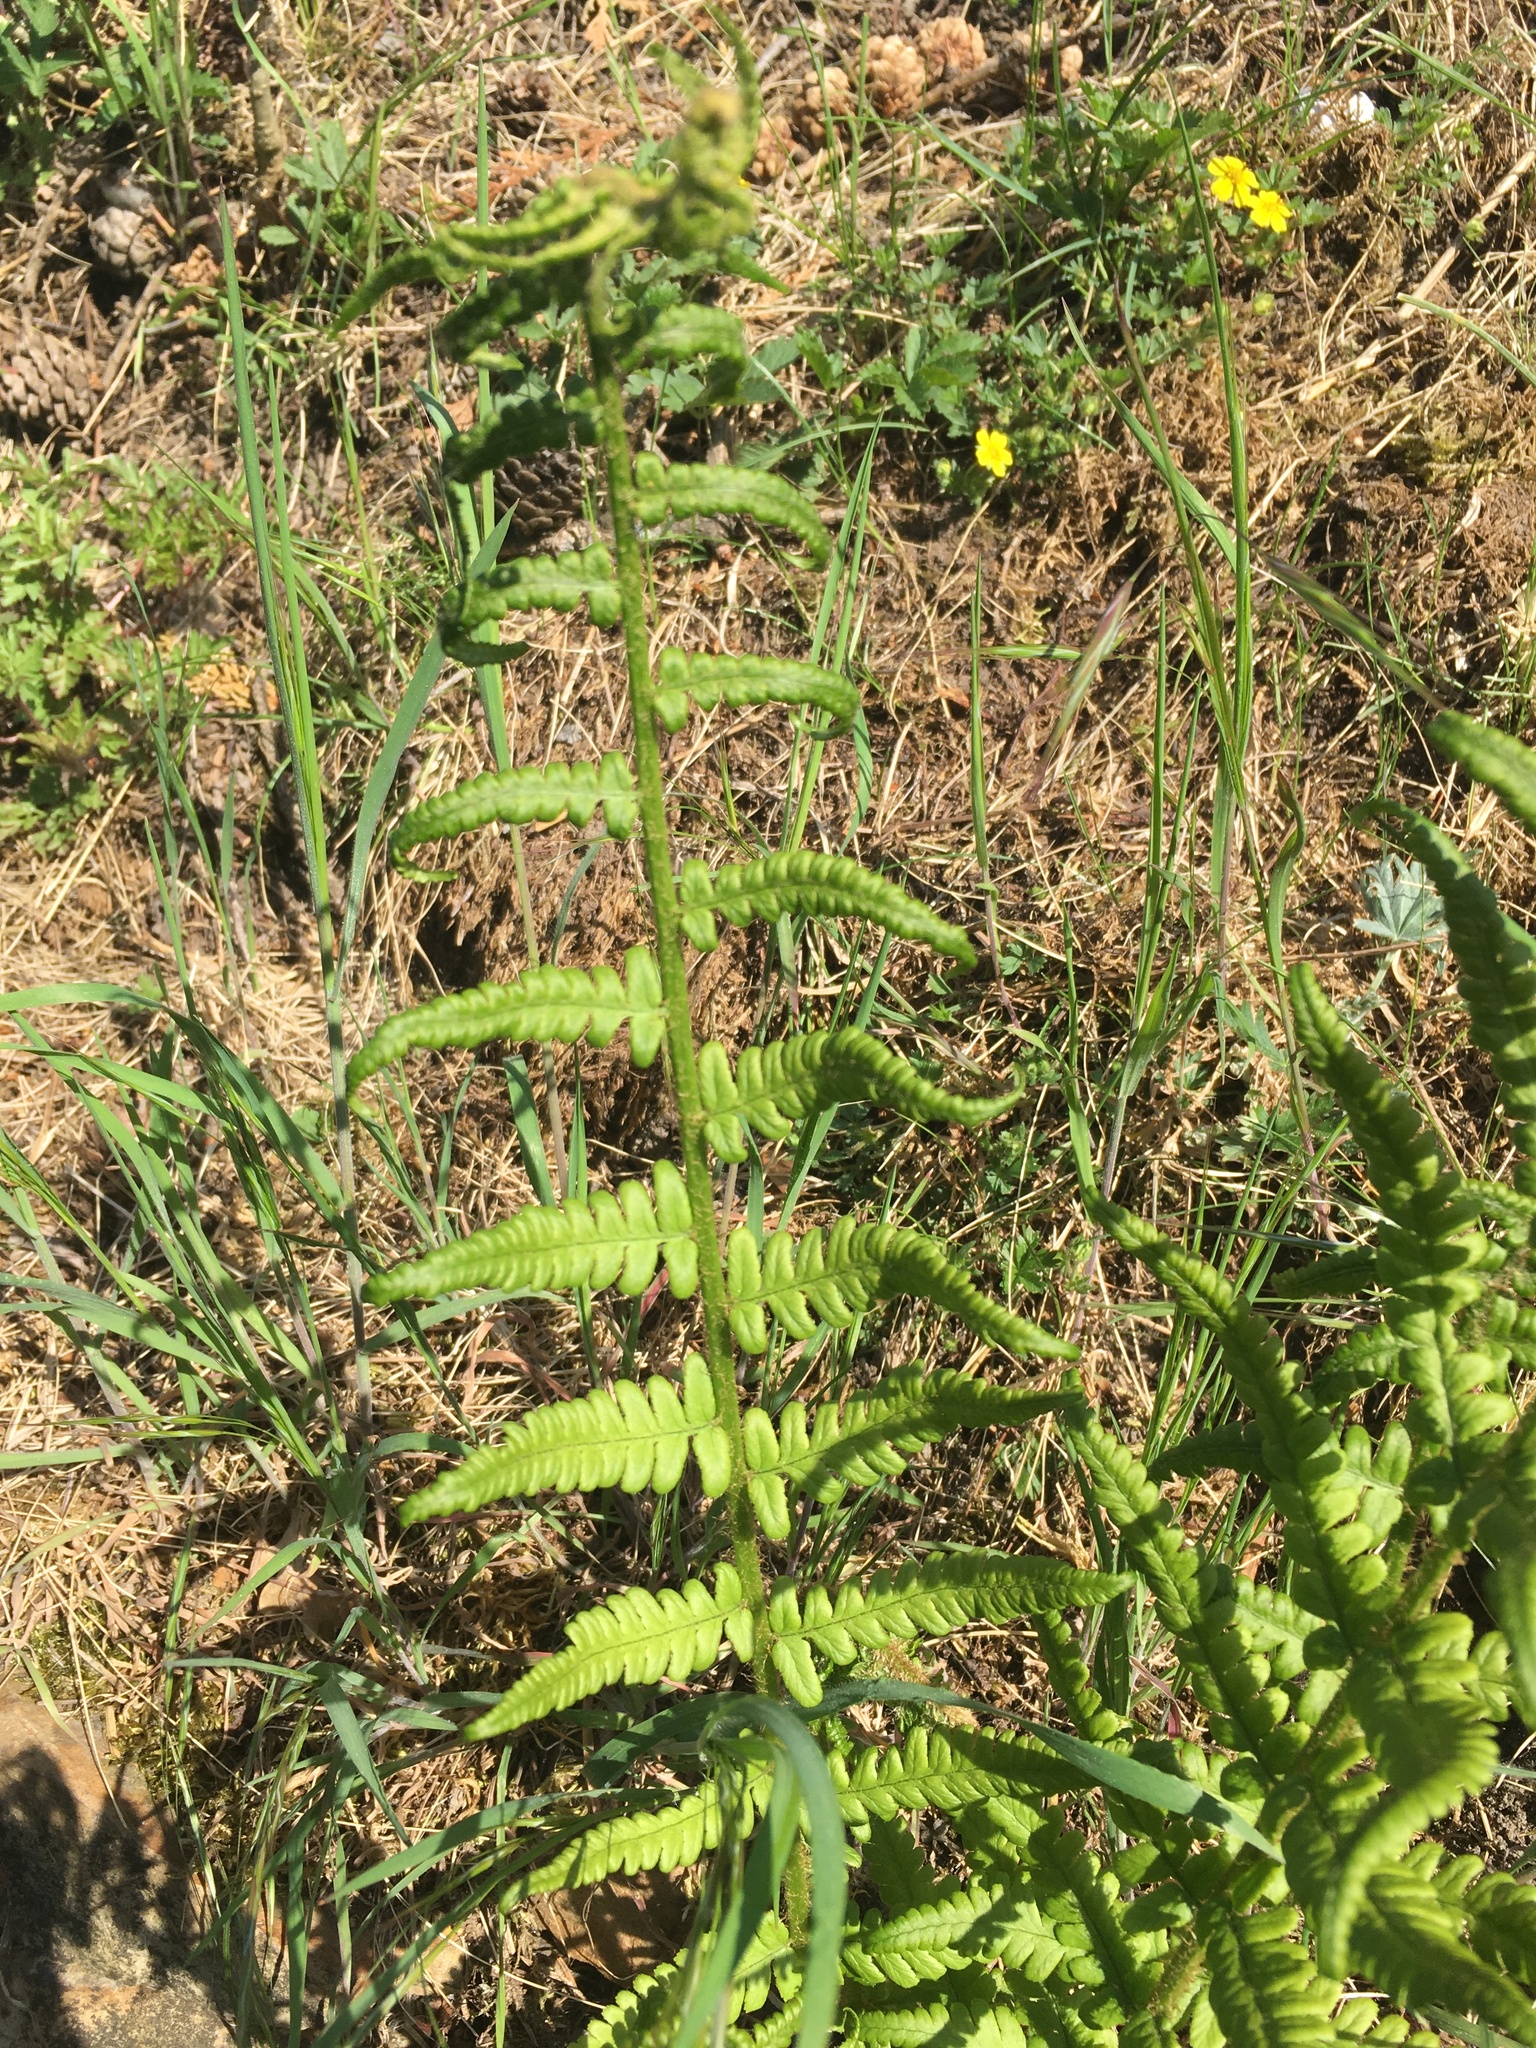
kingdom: Plantae
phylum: Tracheophyta
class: Polypodiopsida
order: Polypodiales
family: Dryopteridaceae
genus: Dryopteris
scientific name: Dryopteris filix-mas
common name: Male fern
